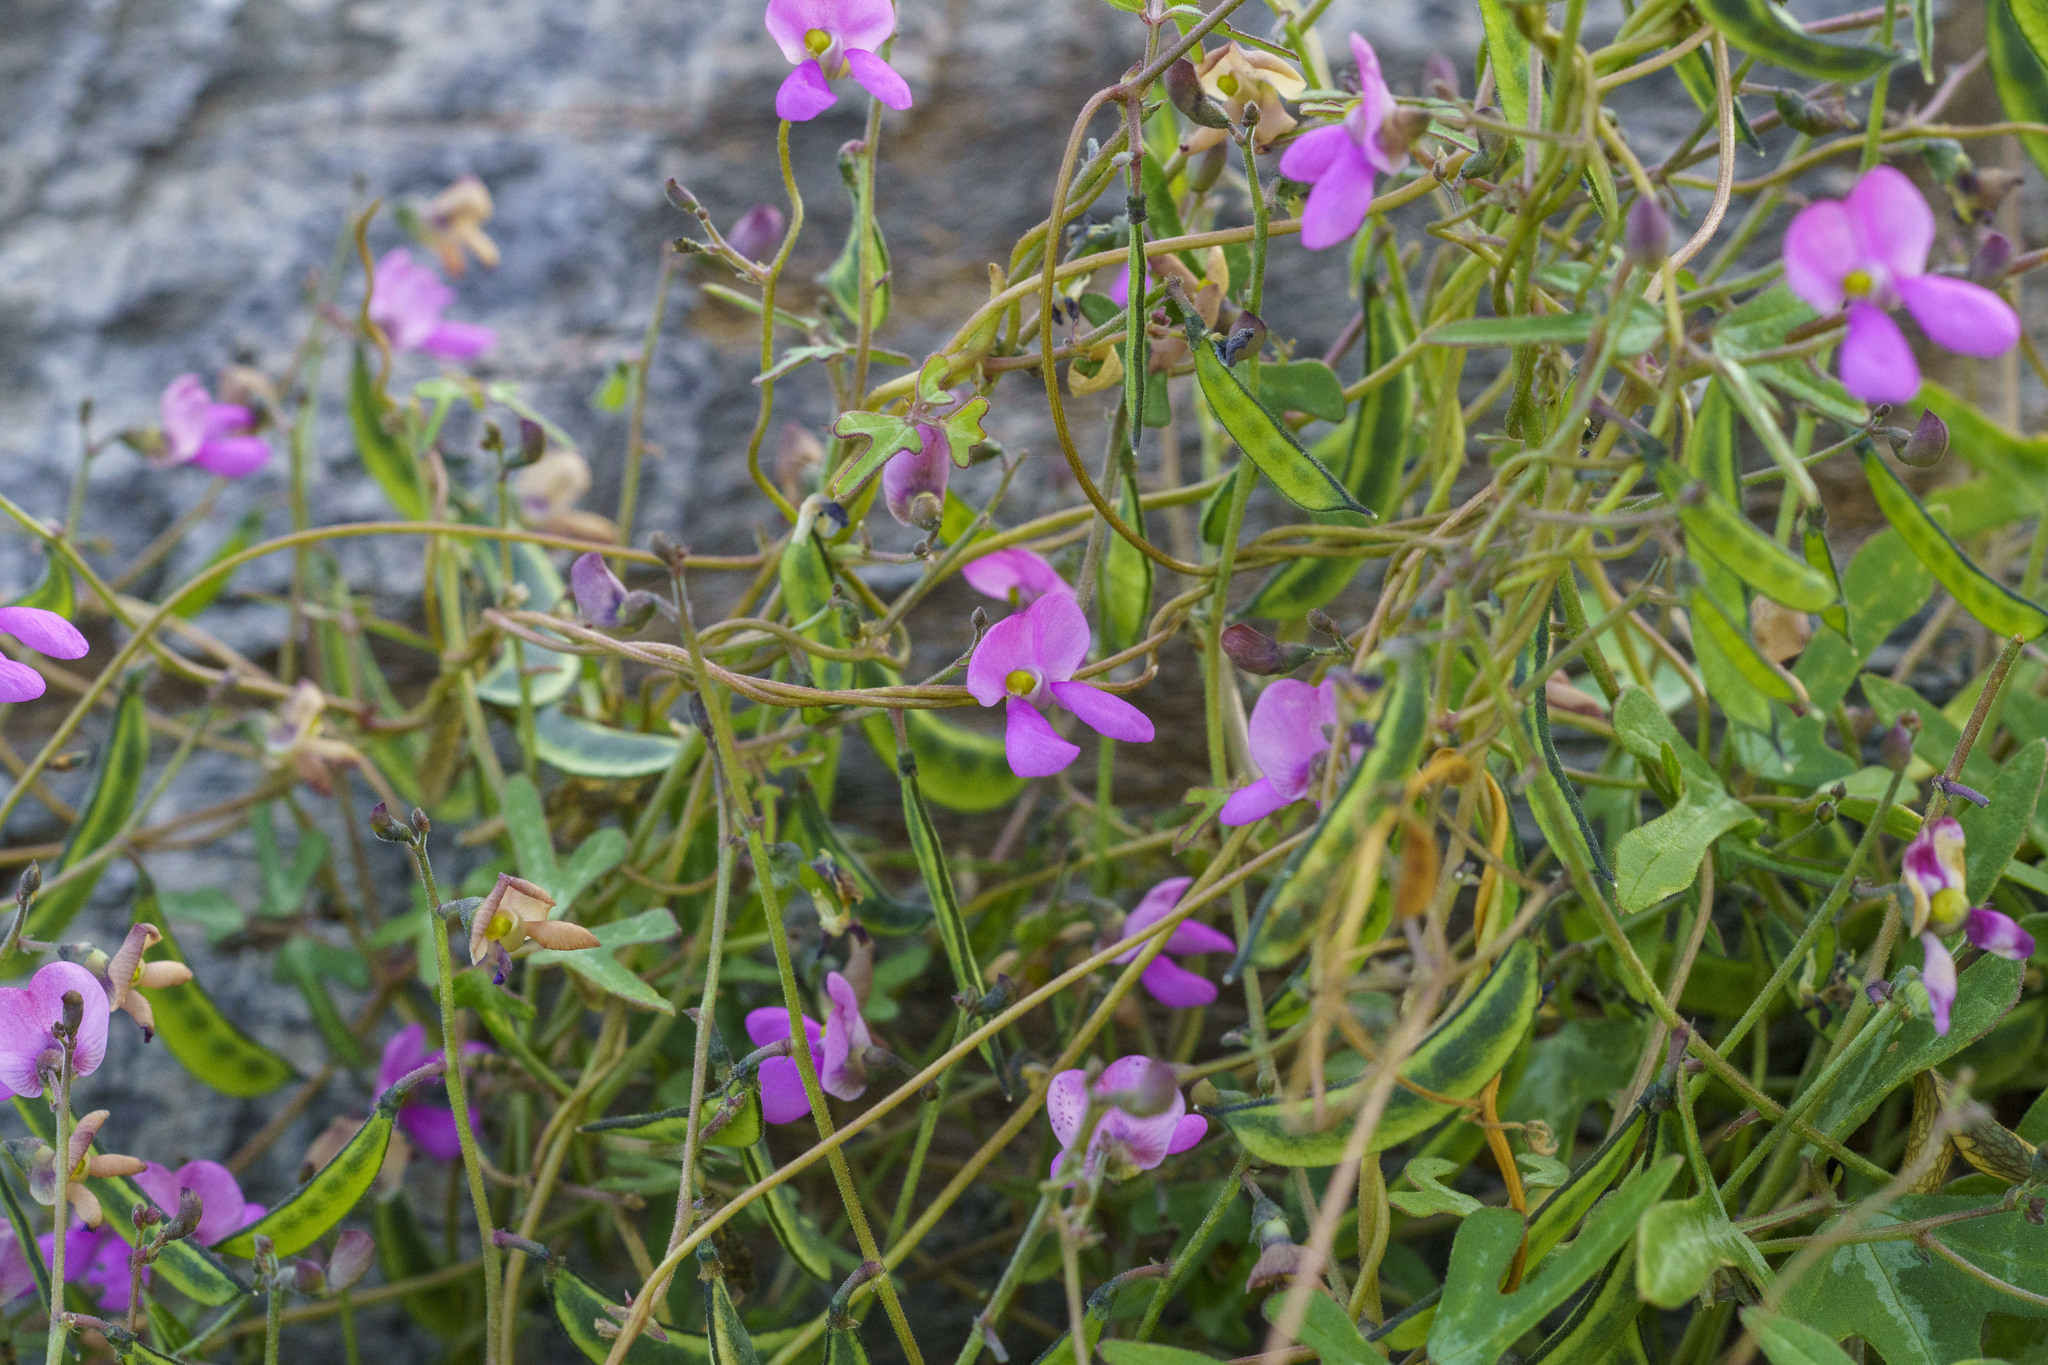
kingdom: Plantae
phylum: Tracheophyta
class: Magnoliopsida
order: Fabales
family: Fabaceae
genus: Phaseolus
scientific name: Phaseolus filiformis
